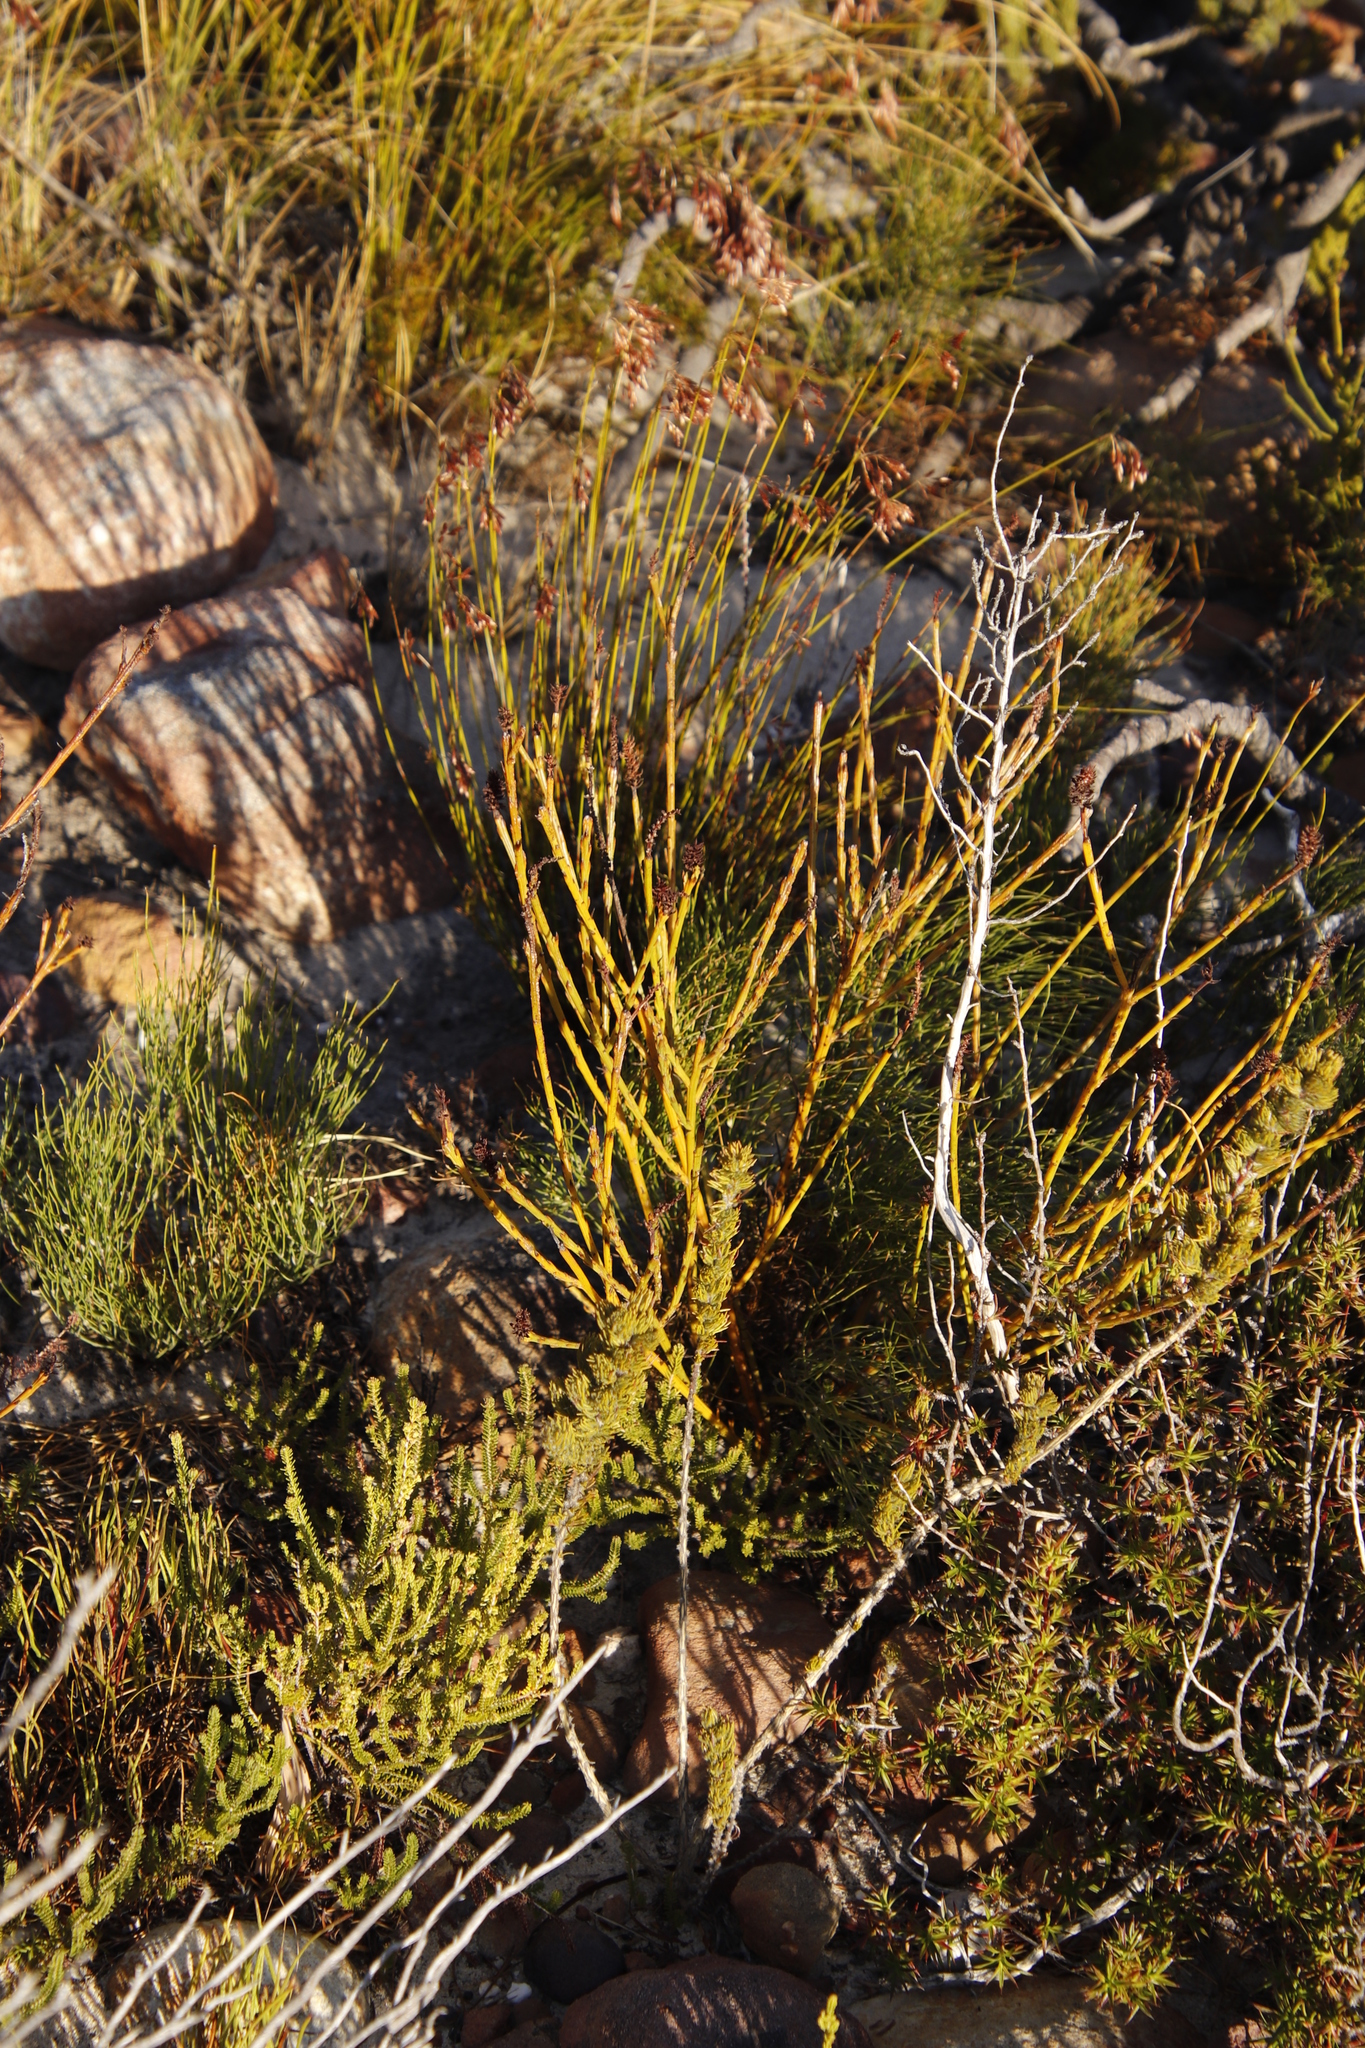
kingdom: Plantae
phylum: Tracheophyta
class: Magnoliopsida
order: Santalales
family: Thesiaceae
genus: Thesium
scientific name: Thesium spicatum
